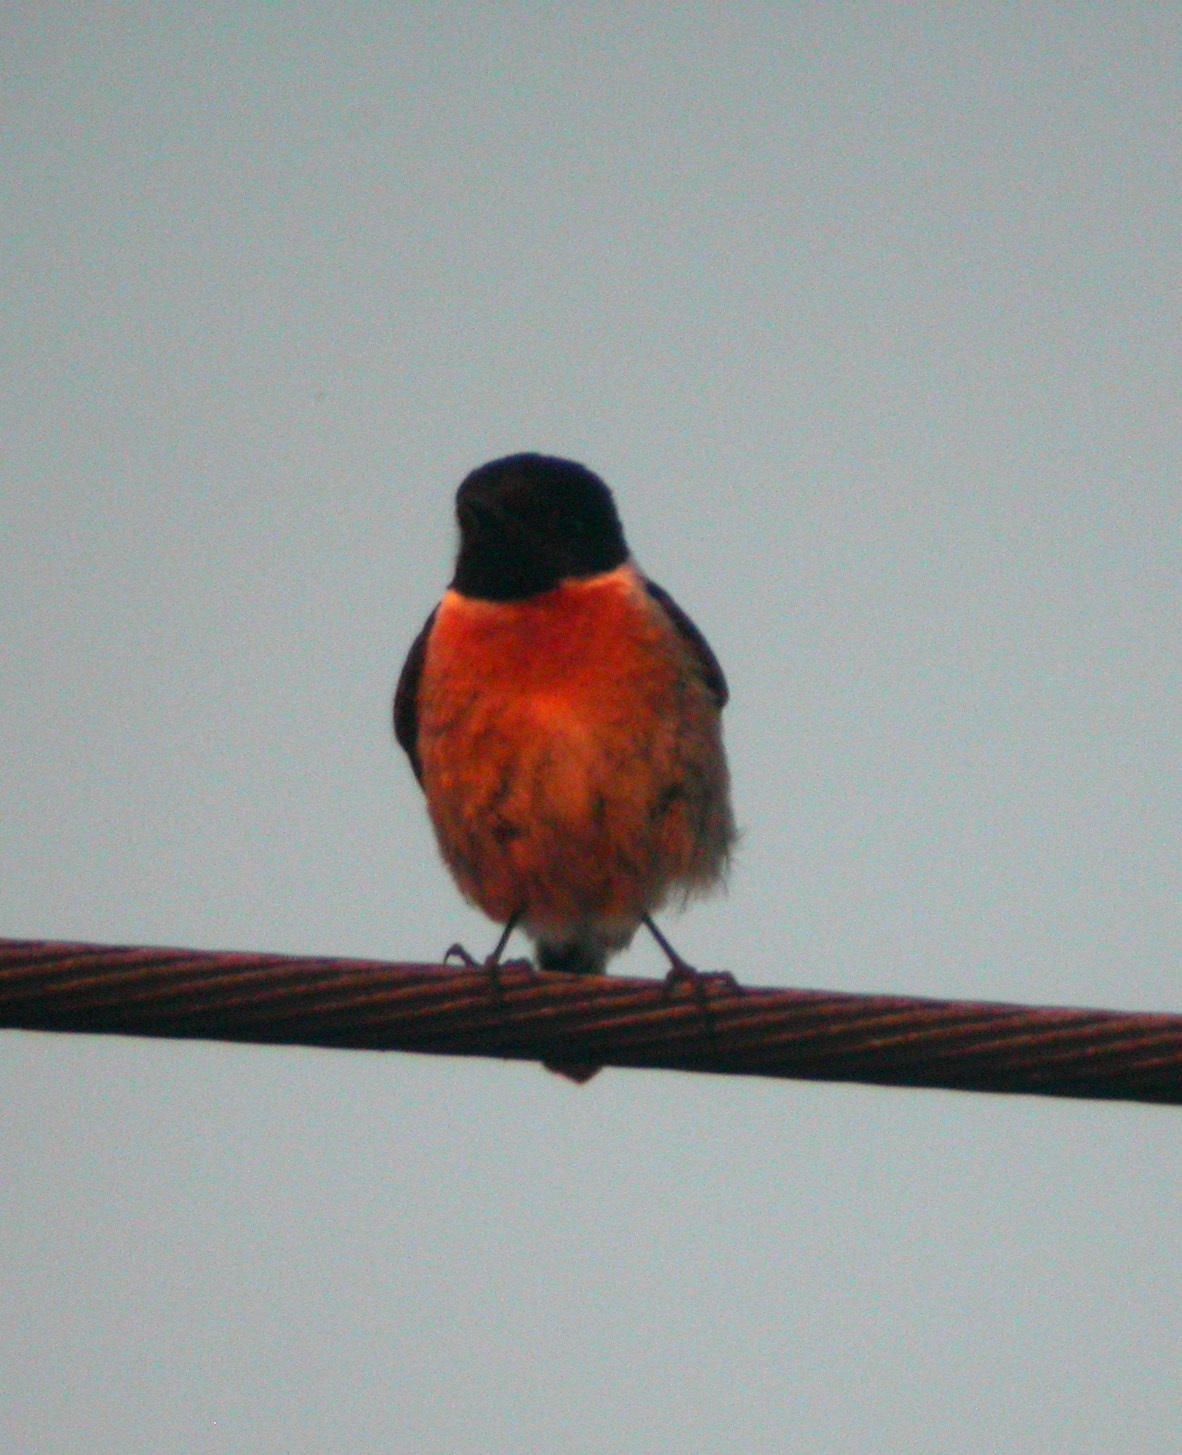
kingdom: Animalia
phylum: Chordata
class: Aves
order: Passeriformes
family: Muscicapidae
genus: Saxicola
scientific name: Saxicola rubicola
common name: European stonechat
